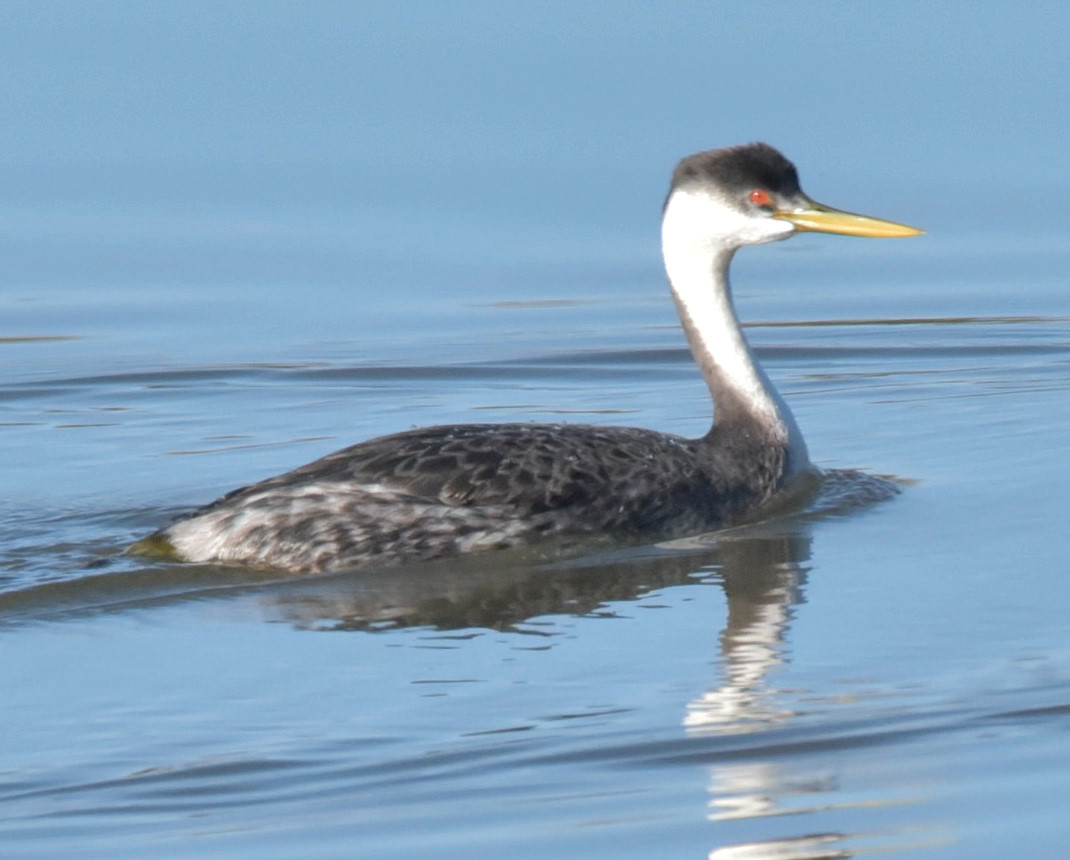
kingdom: Animalia
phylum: Chordata
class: Aves
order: Podicipediformes
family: Podicipedidae
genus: Aechmophorus
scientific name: Aechmophorus occidentalis
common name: Western grebe
